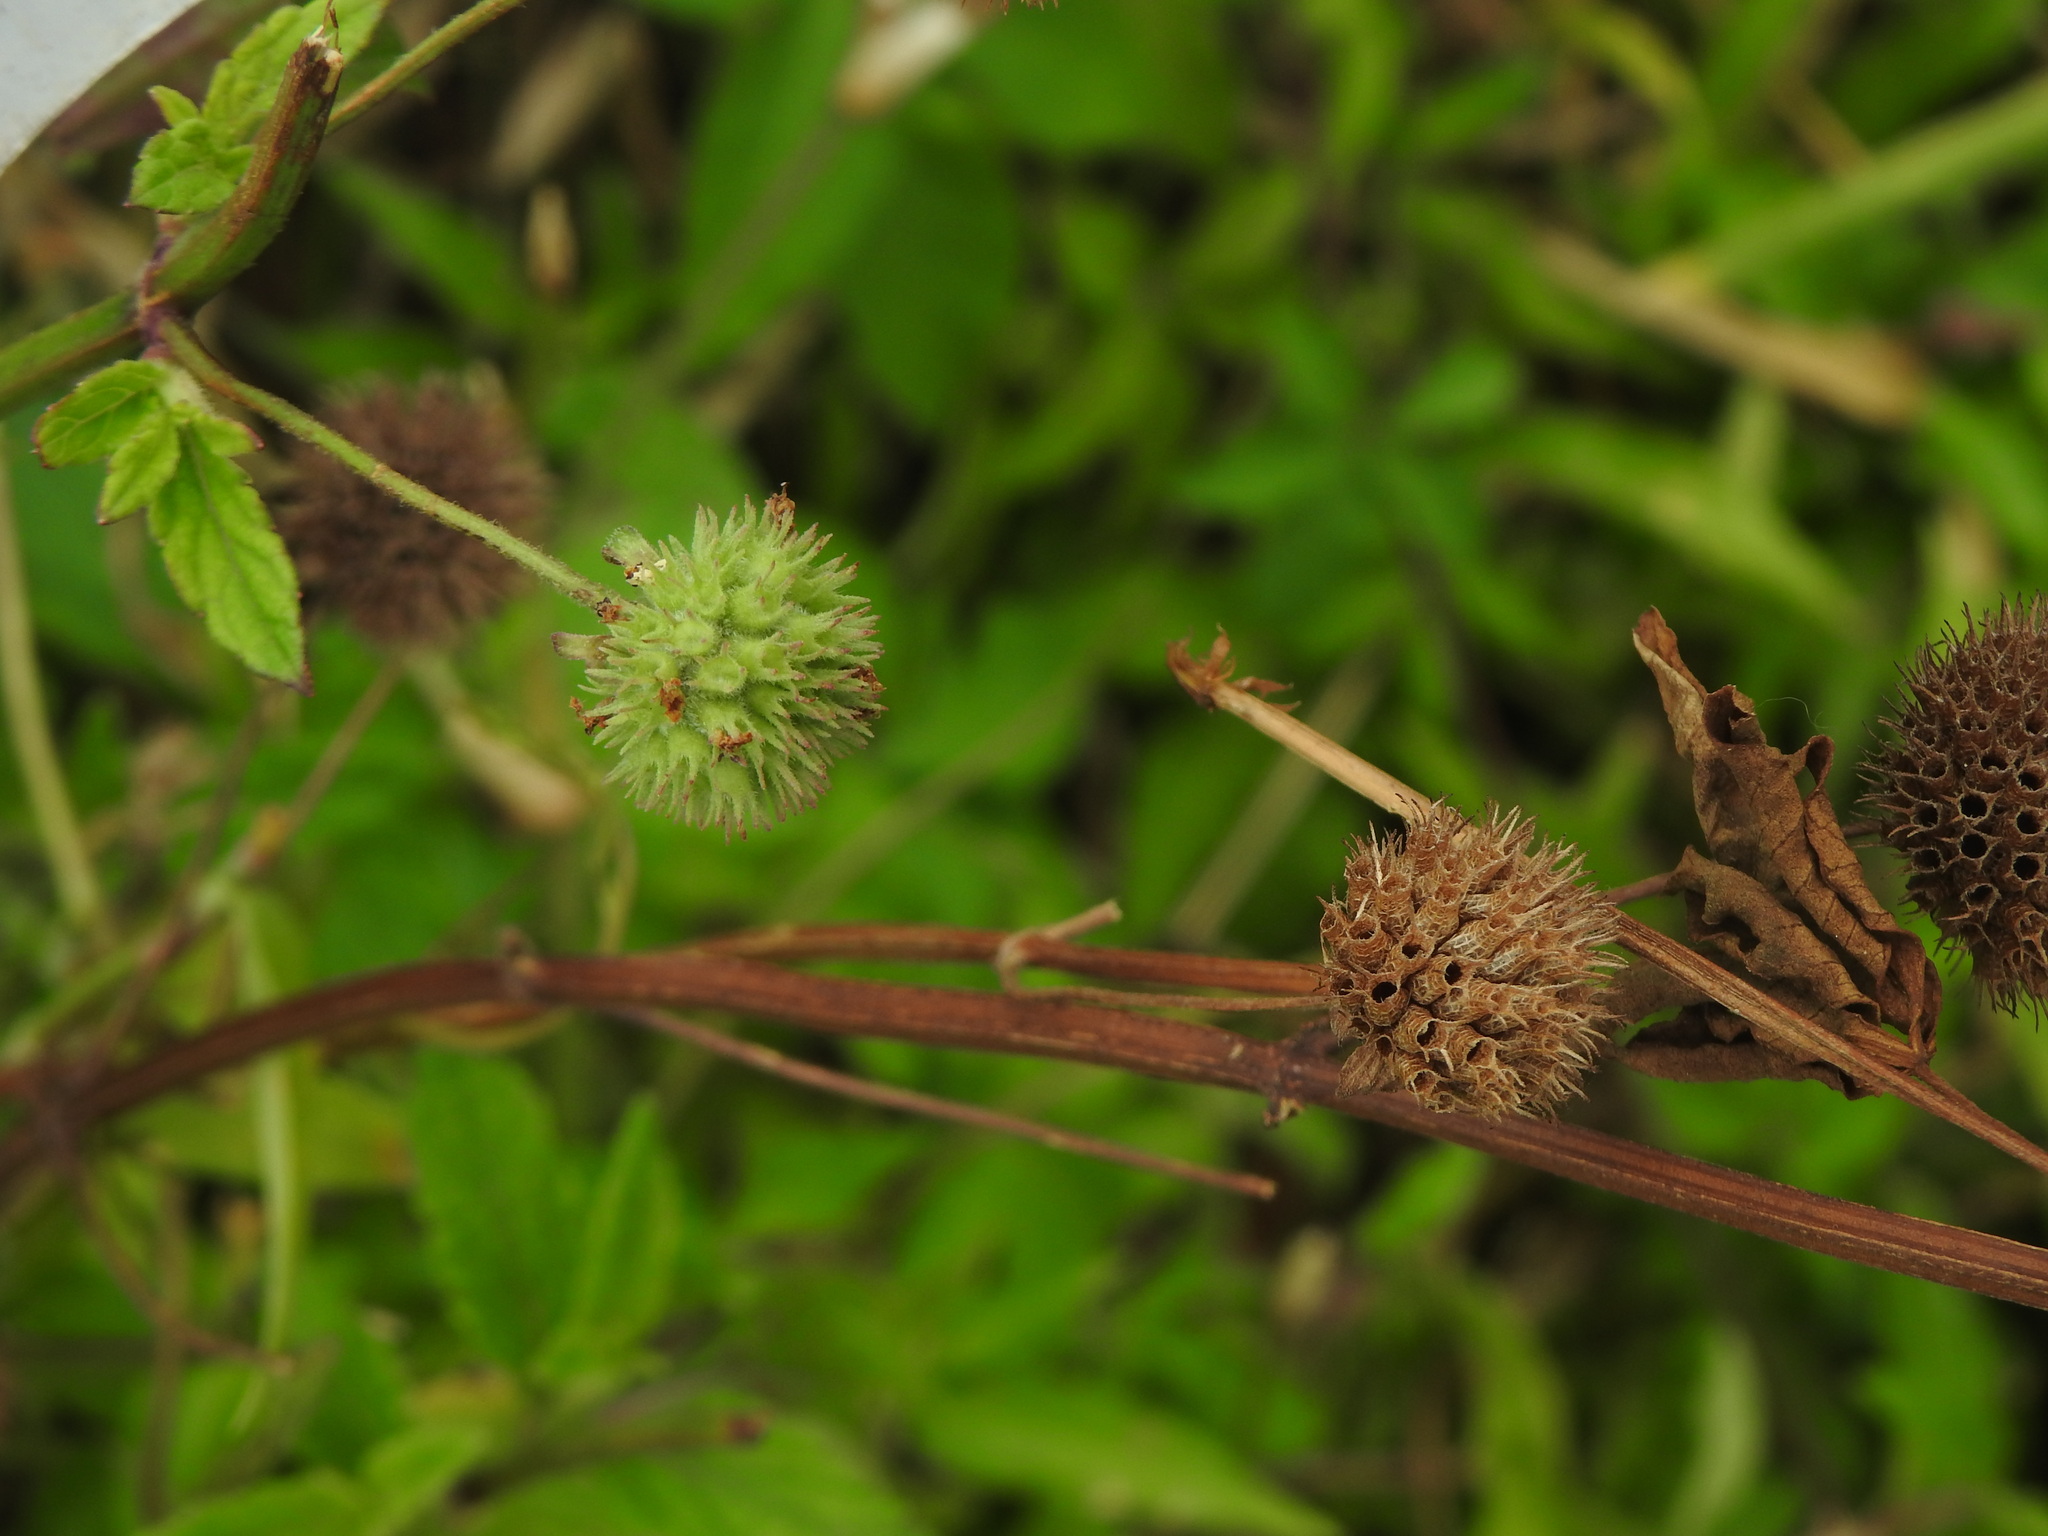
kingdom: Plantae
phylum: Tracheophyta
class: Magnoliopsida
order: Lamiales
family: Lamiaceae
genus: Hyptis
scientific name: Hyptis capitata
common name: False ironwort
